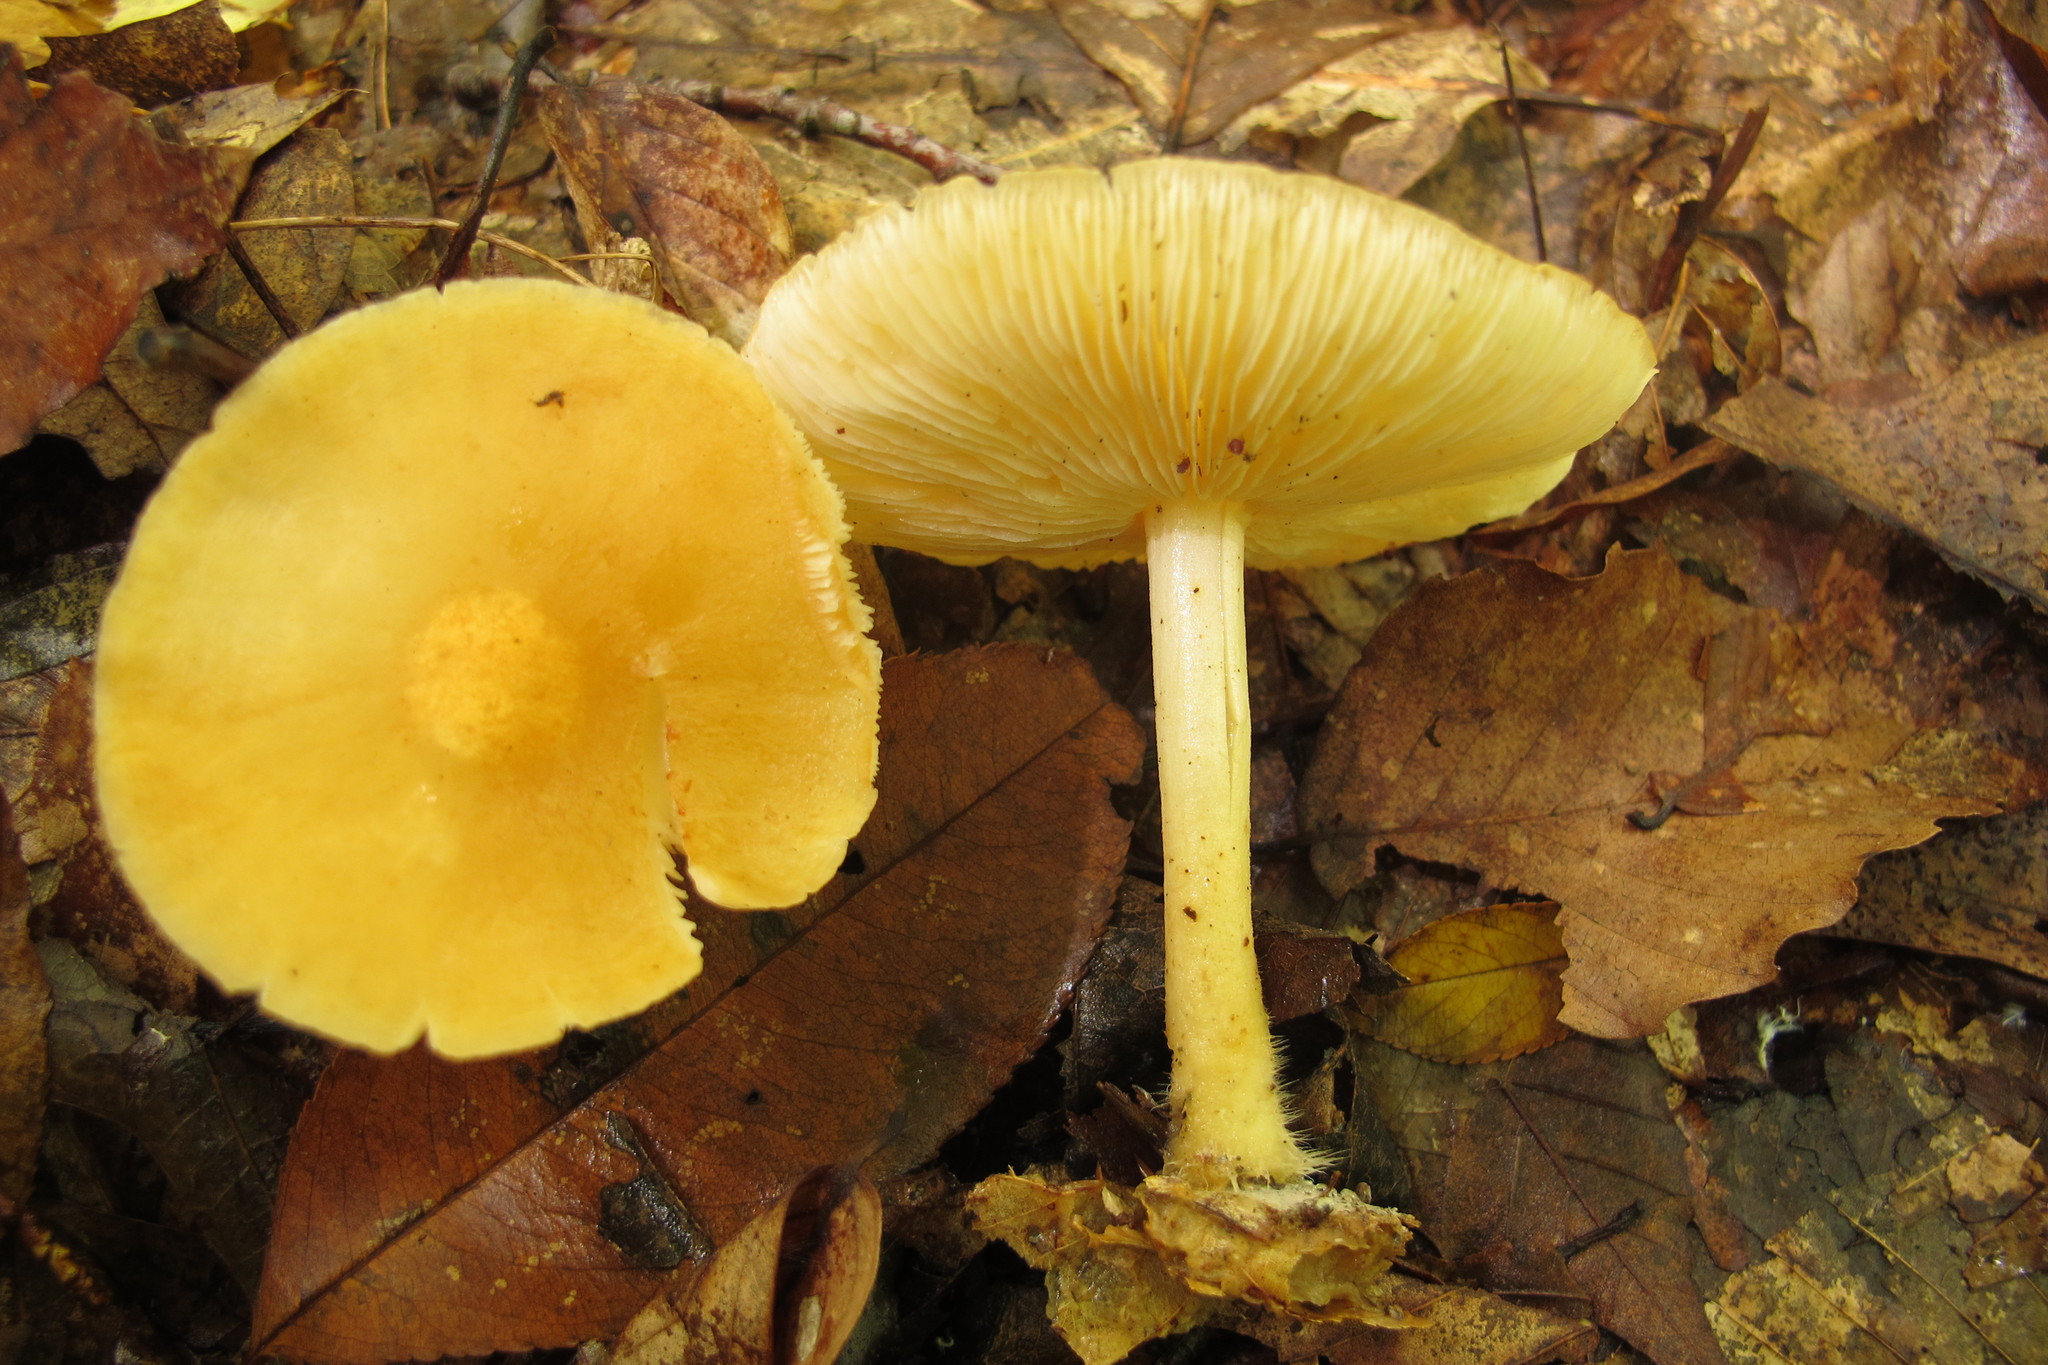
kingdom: Fungi
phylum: Basidiomycota
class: Agaricomycetes
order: Agaricales
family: Marasmiaceae
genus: Marasmius
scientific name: Marasmius strictipes
